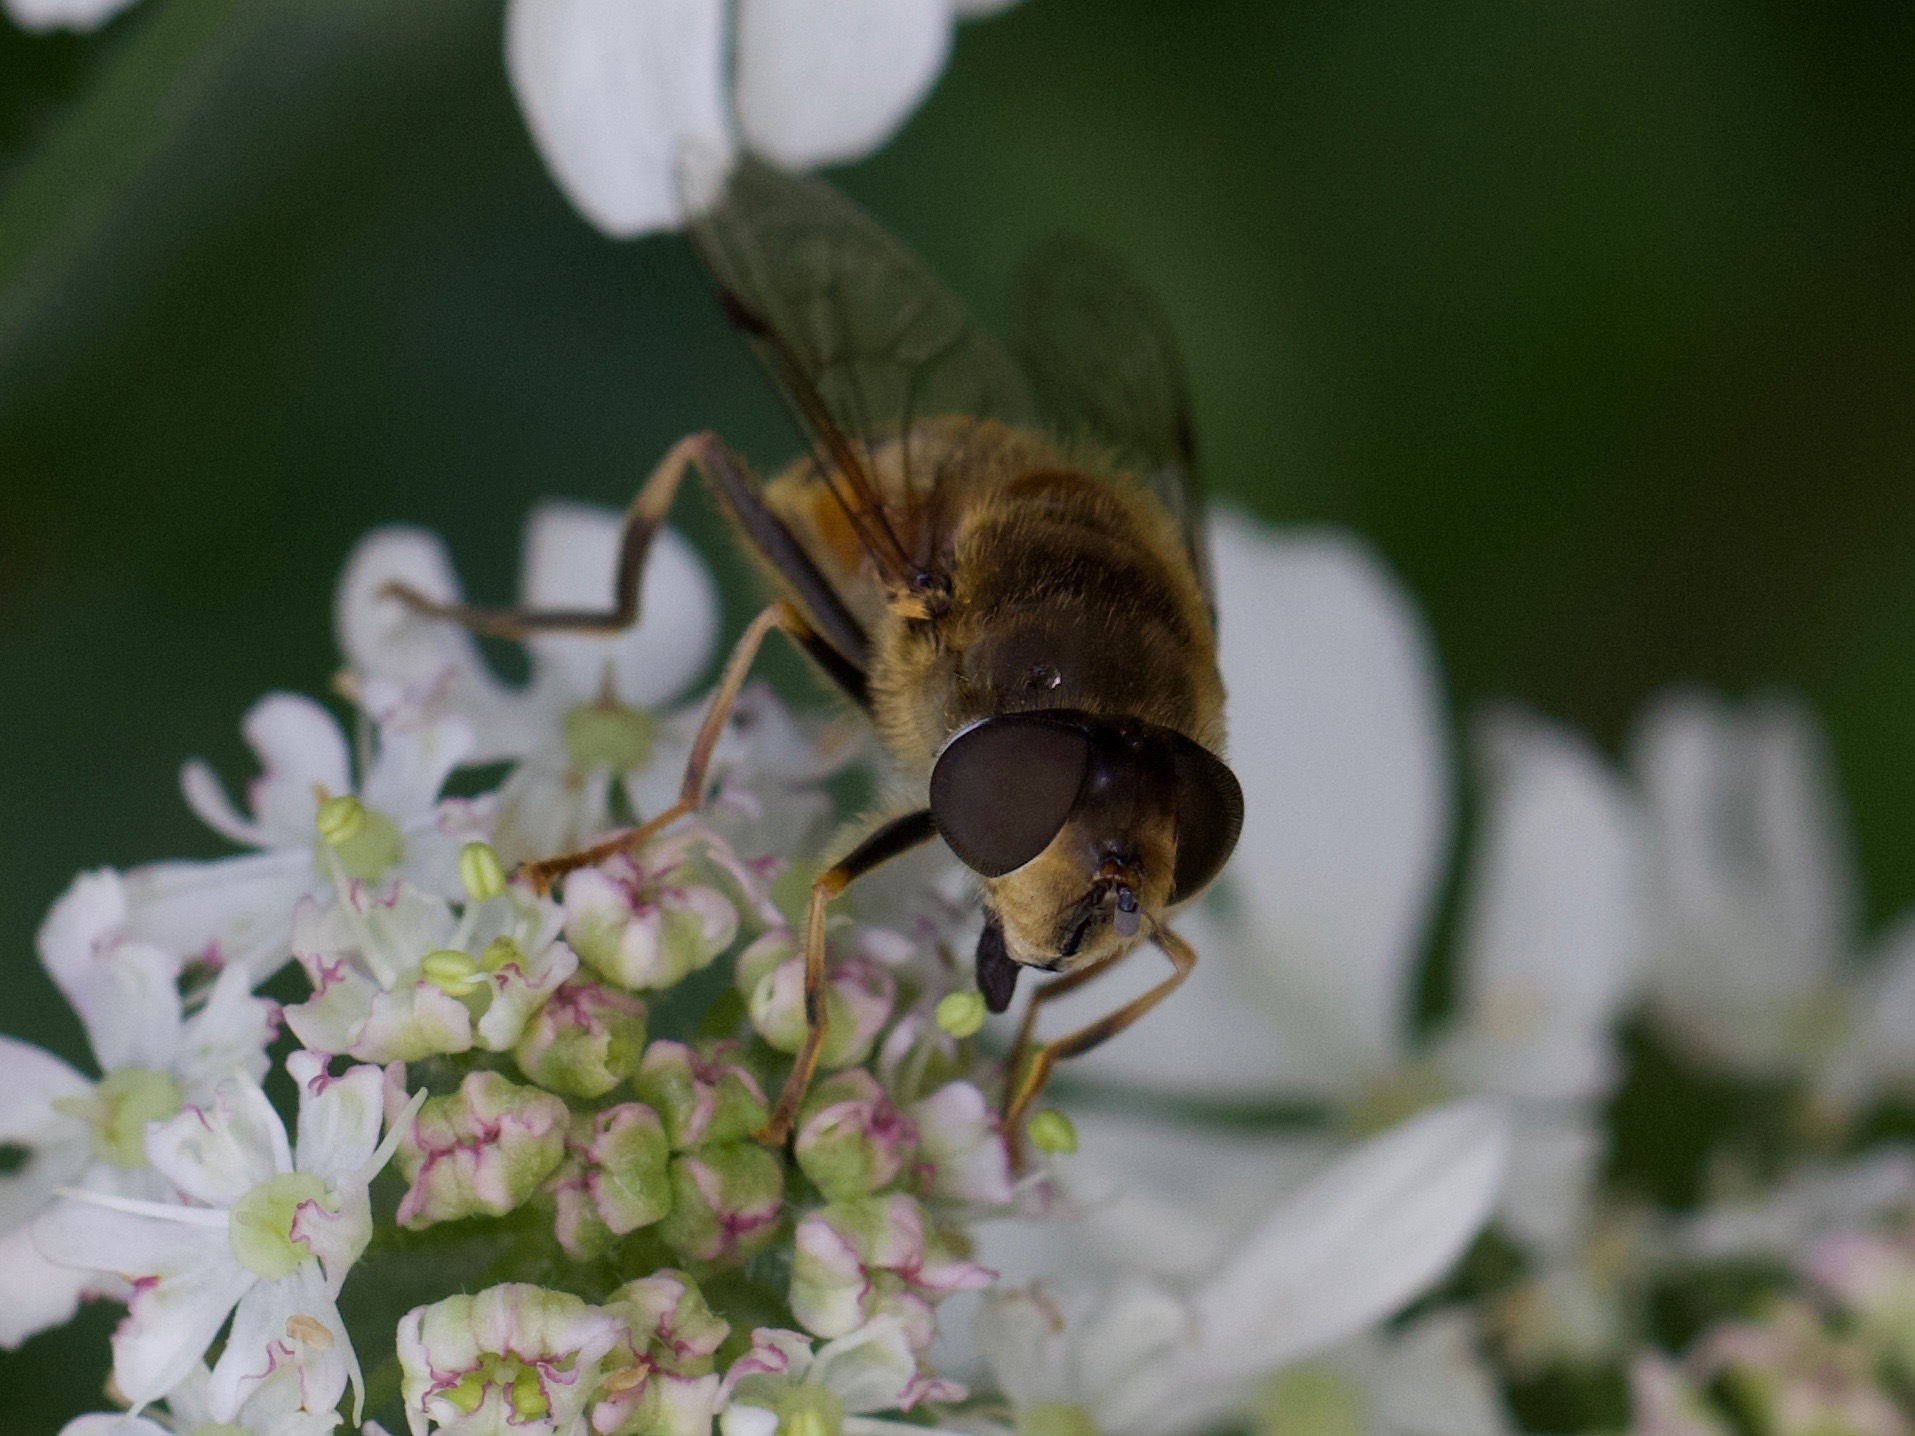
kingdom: Animalia
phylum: Arthropoda
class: Insecta
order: Diptera
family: Syrphidae
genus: Eristalis
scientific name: Eristalis pertinax
